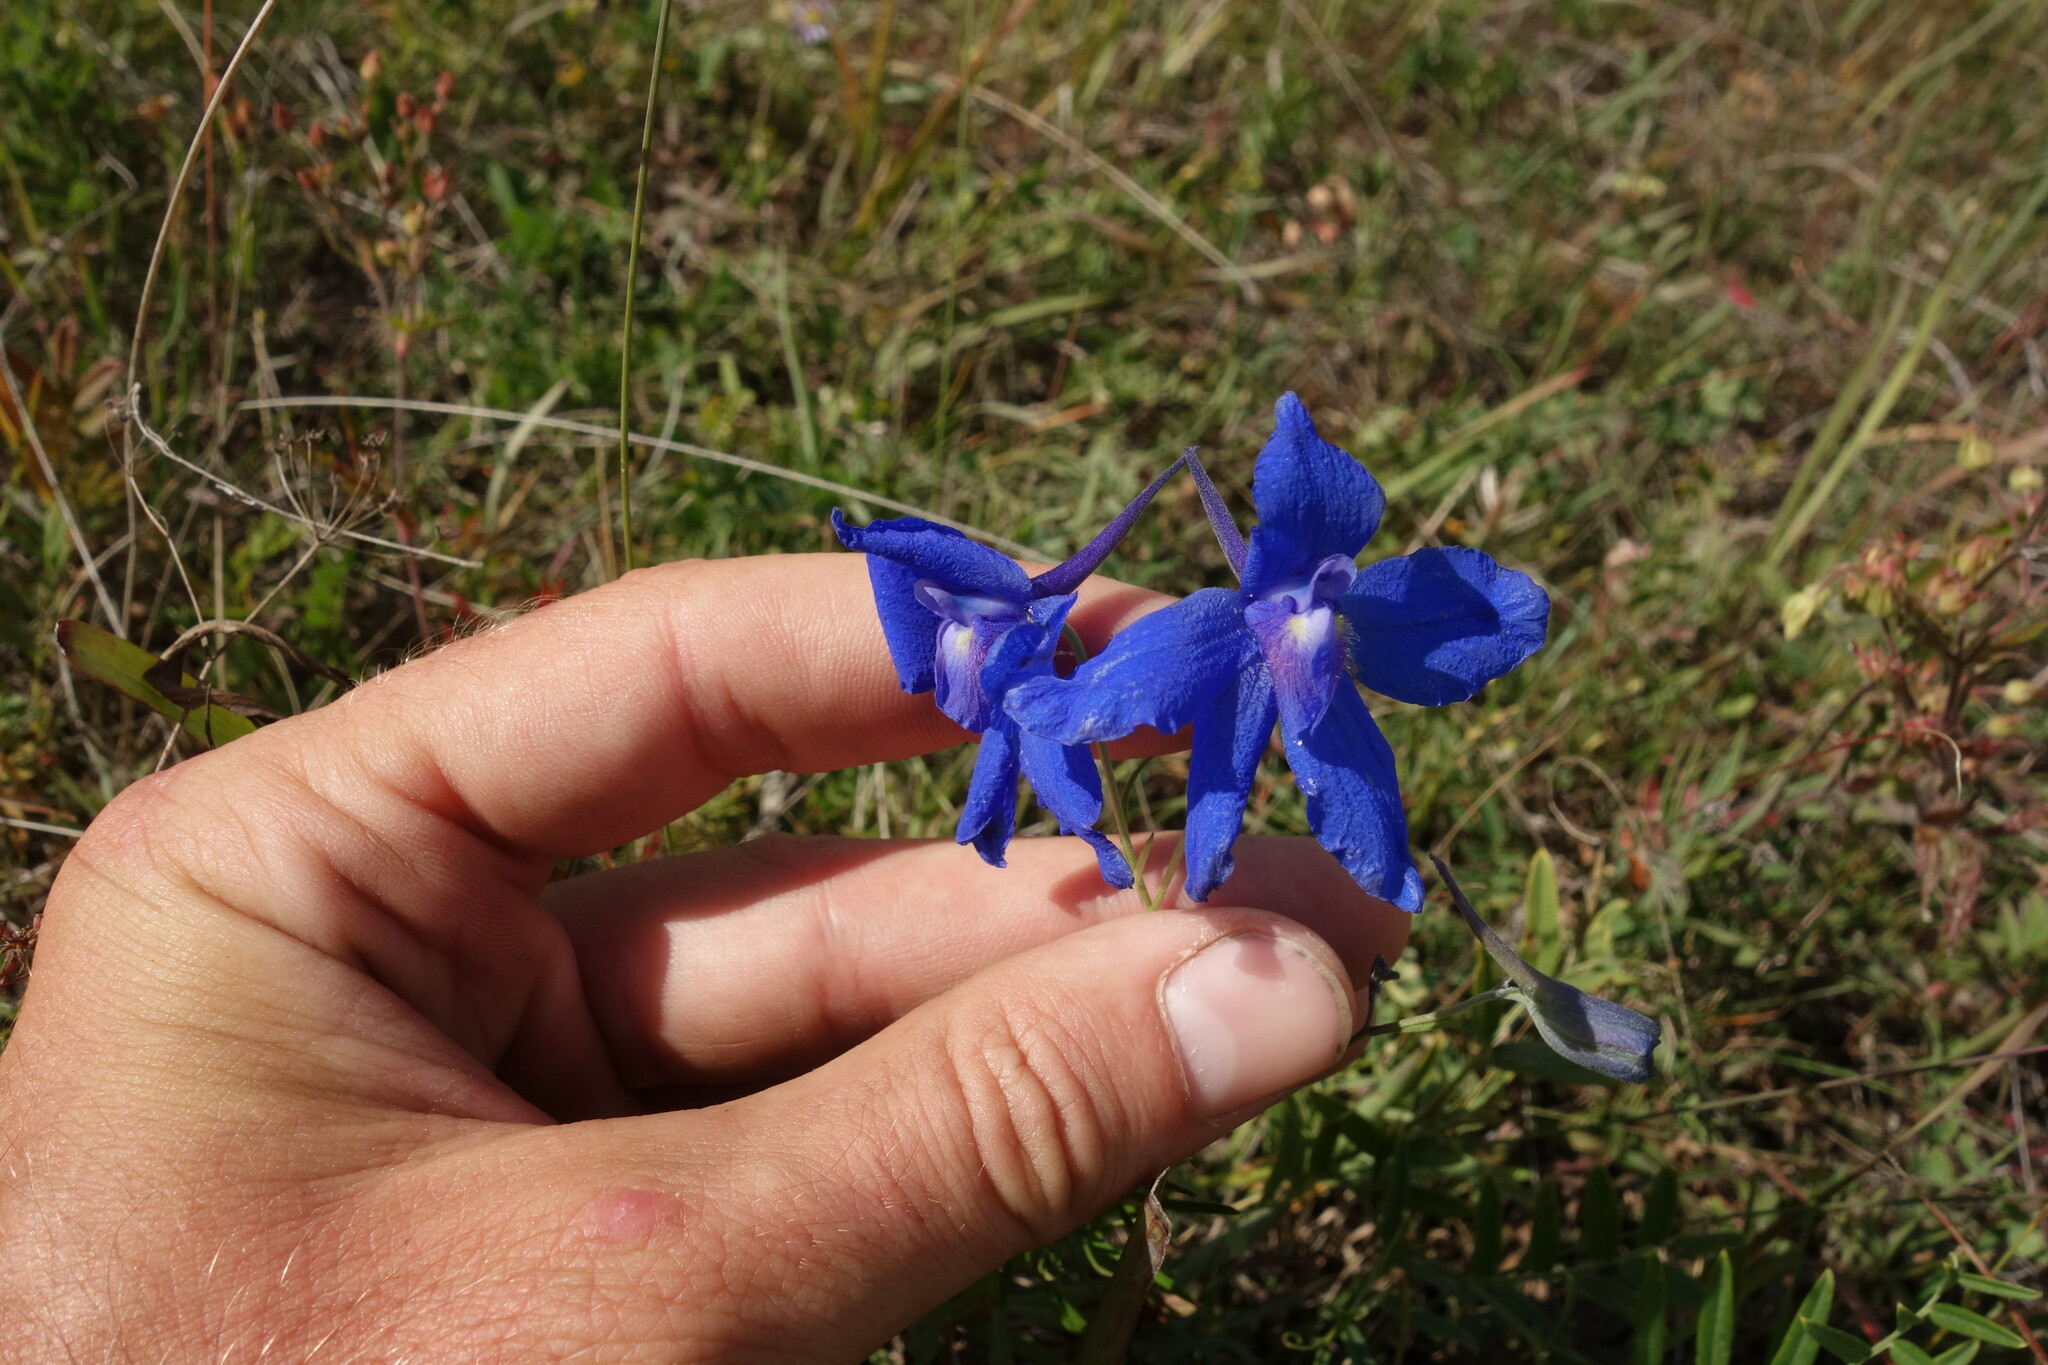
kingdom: Plantae
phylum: Tracheophyta
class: Magnoliopsida
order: Ranunculales
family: Ranunculaceae
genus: Delphinium
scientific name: Delphinium grandiflorum
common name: Siberian larkspur
